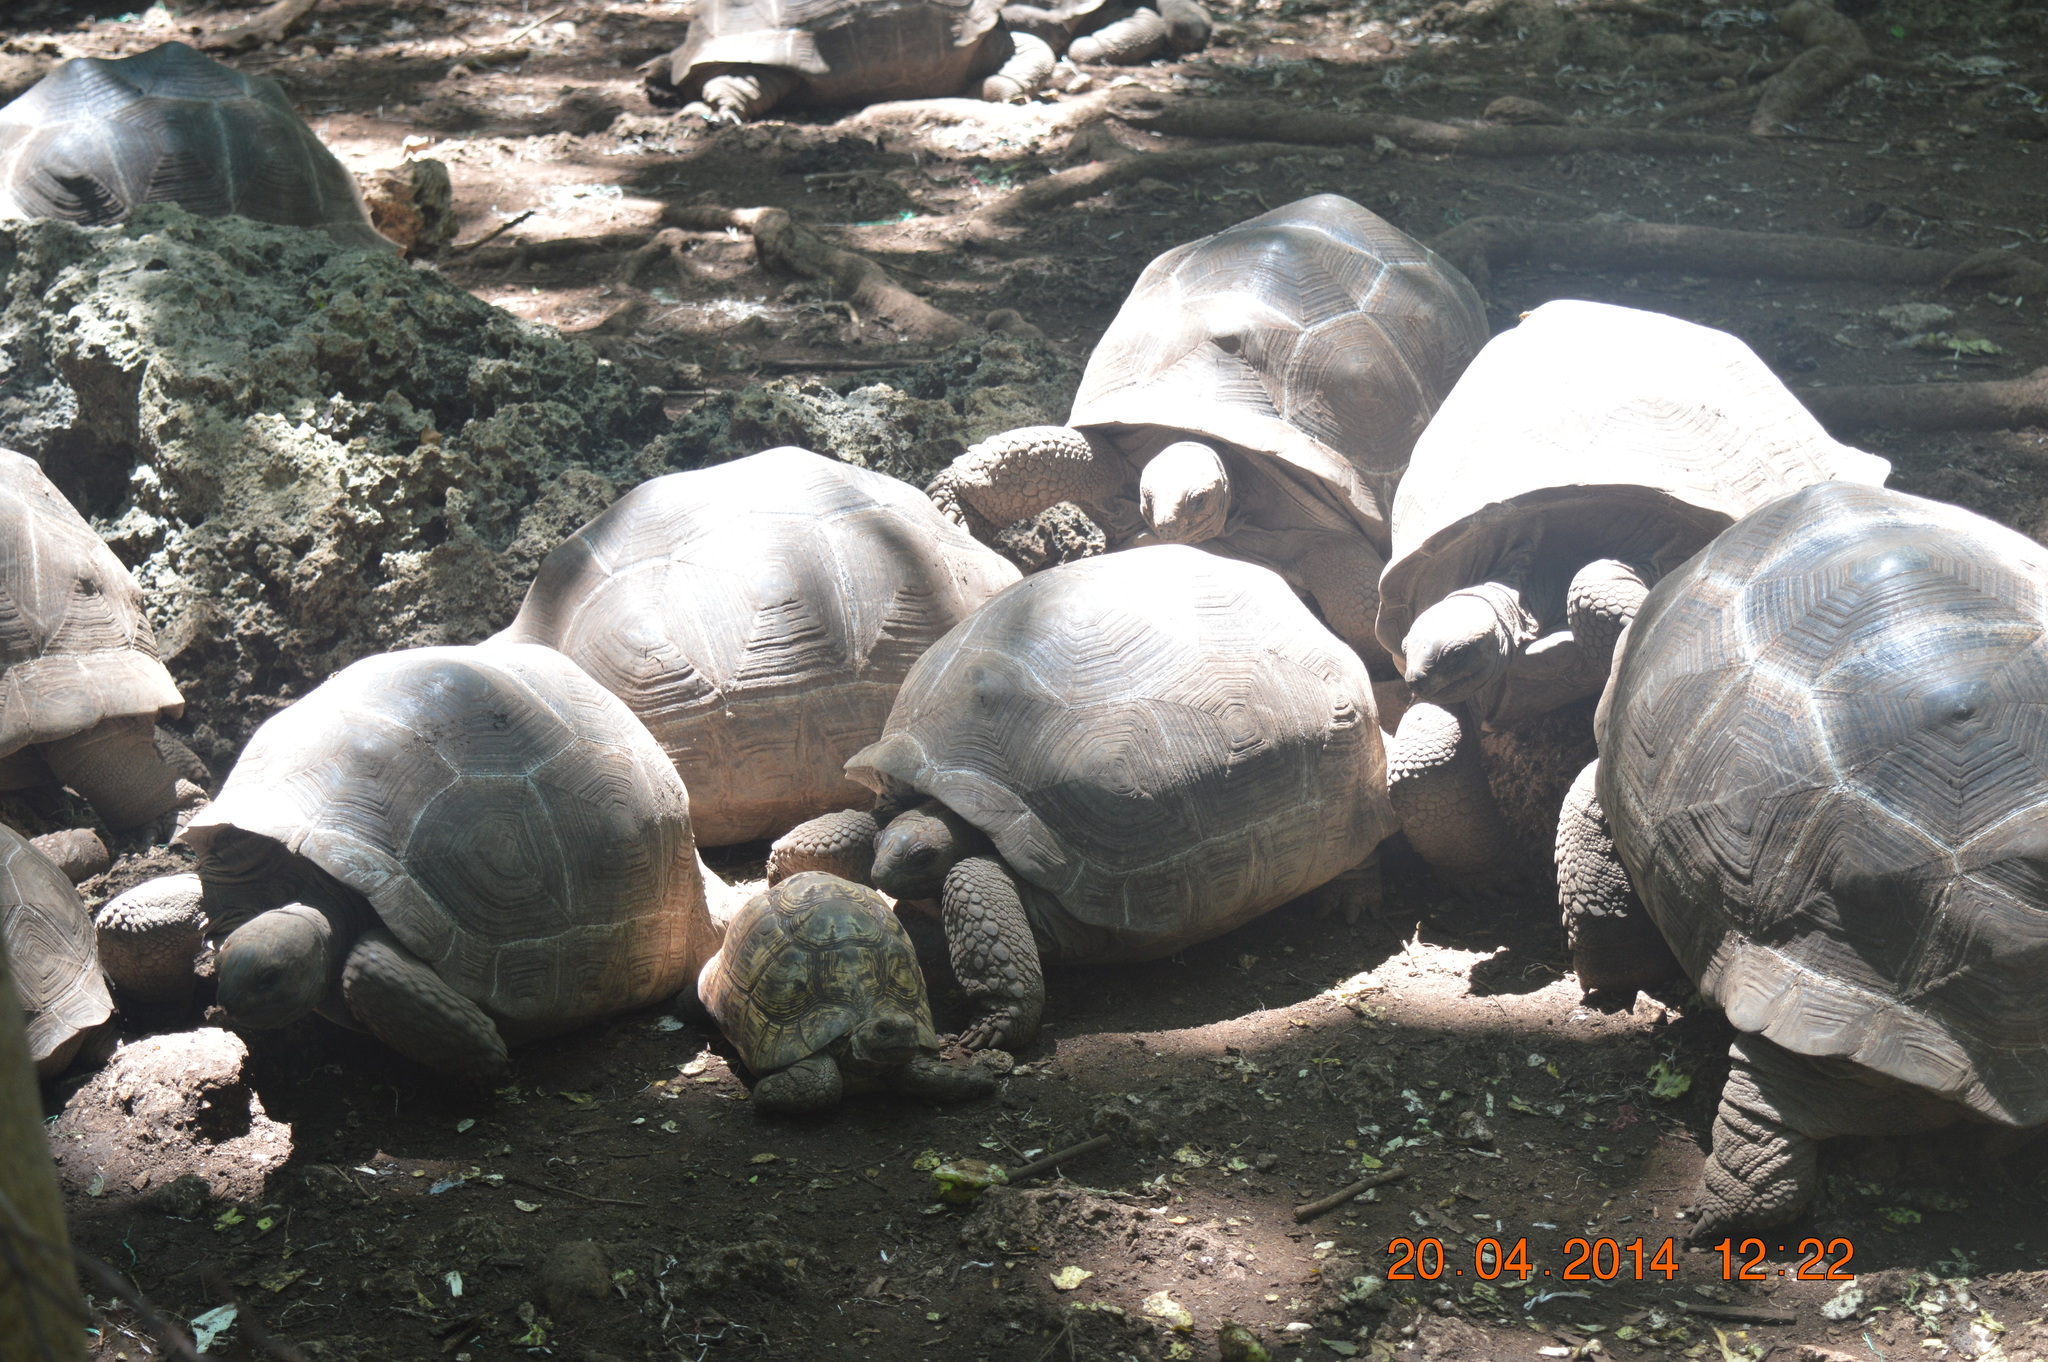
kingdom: Animalia
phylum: Chordata
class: Testudines
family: Testudinidae
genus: Aldabrachelys
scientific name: Aldabrachelys gigantea
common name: Aldabra giant tortoise
